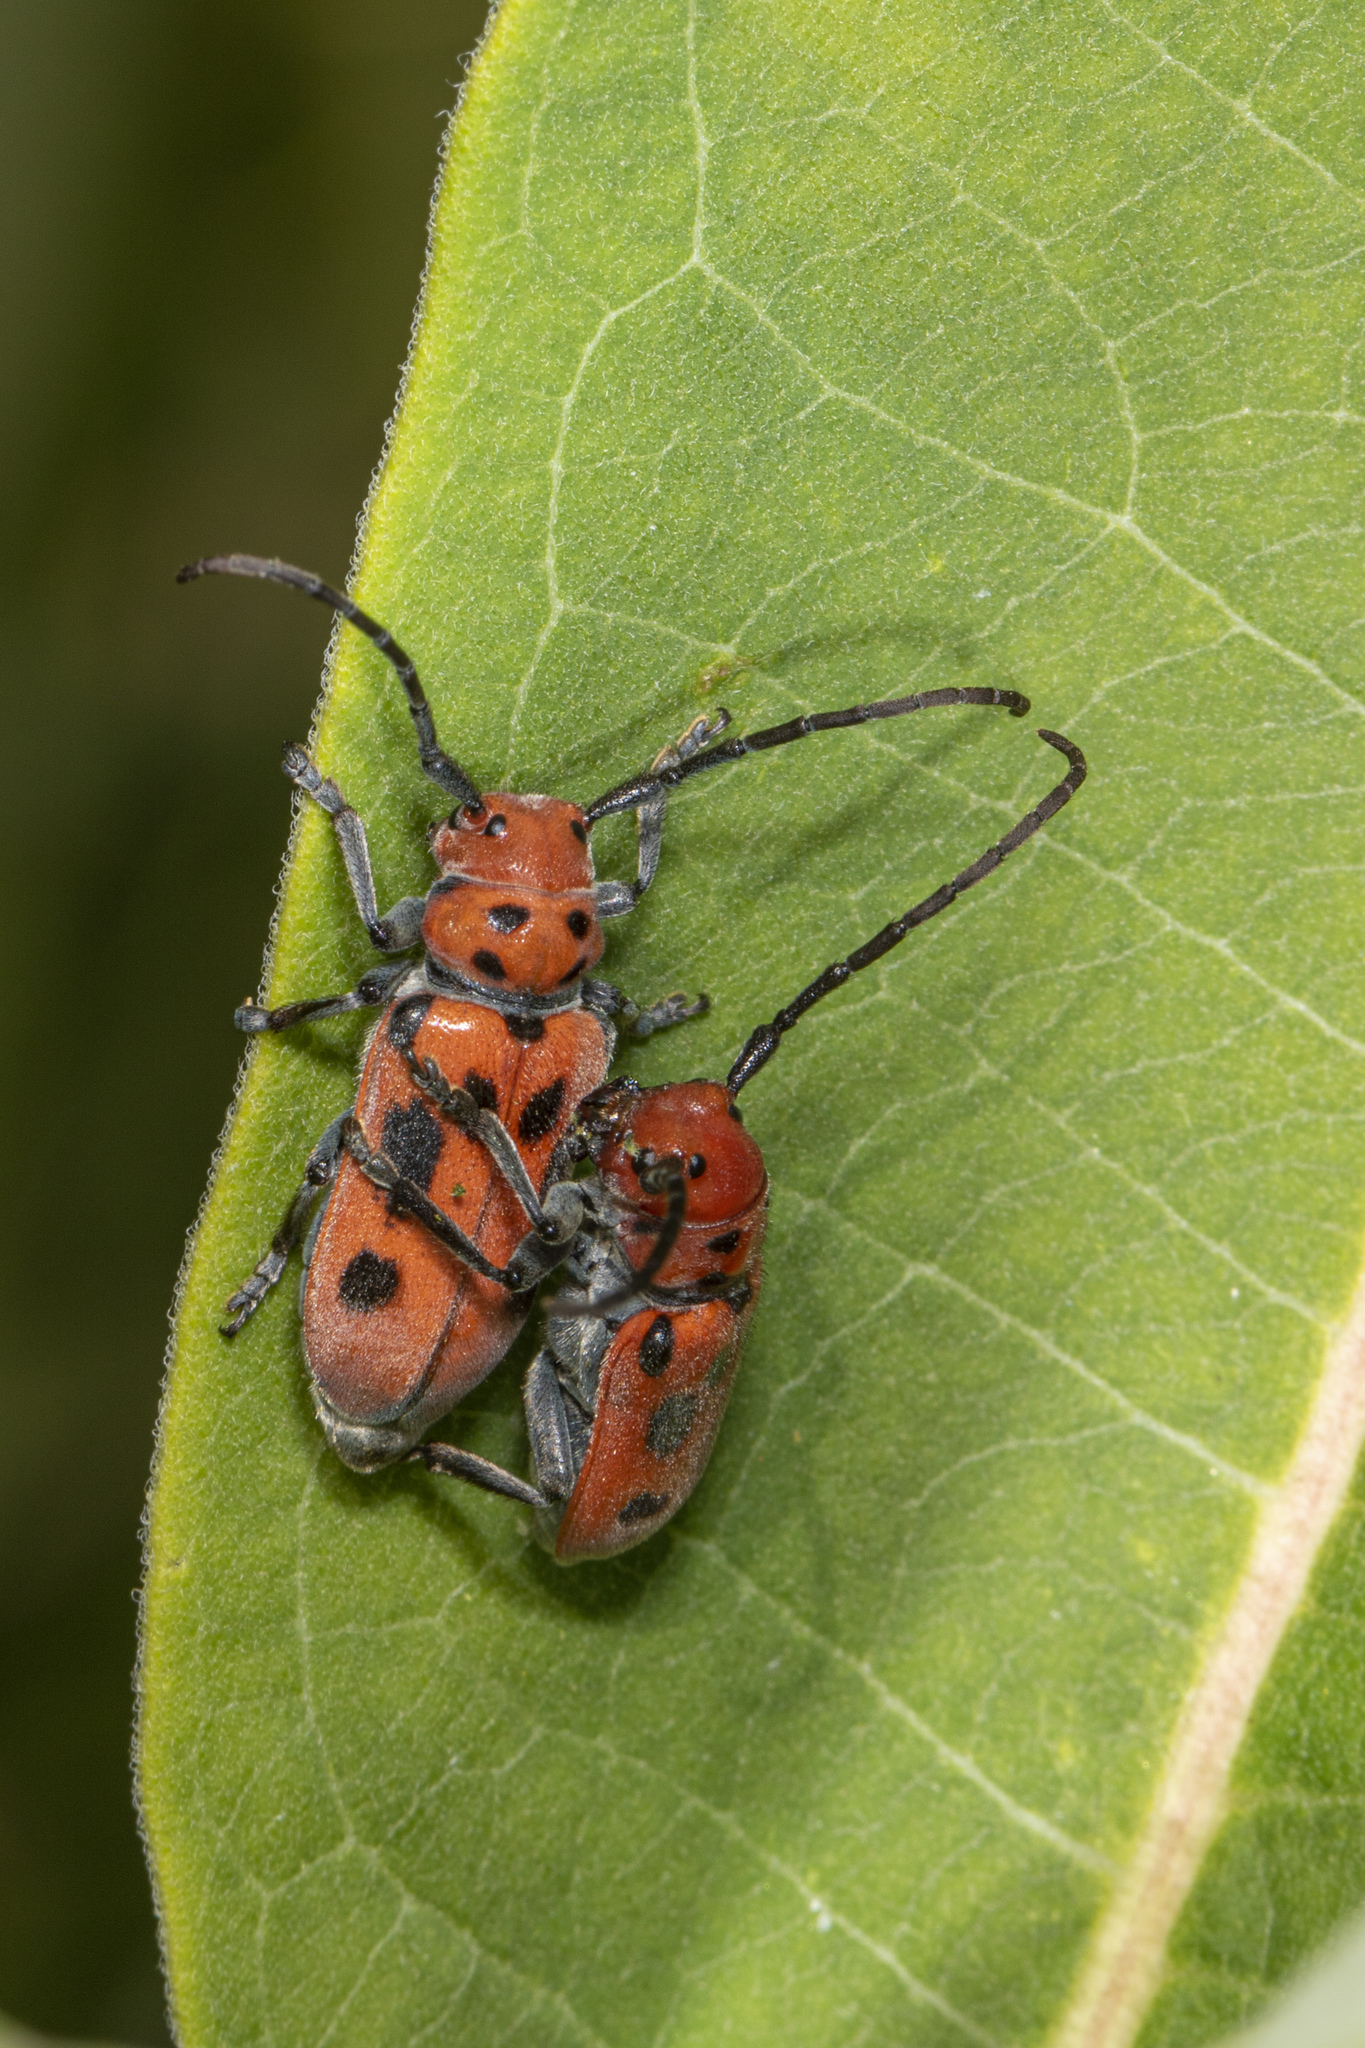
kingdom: Animalia
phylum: Arthropoda
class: Insecta
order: Coleoptera
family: Cerambycidae
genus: Tetraopes
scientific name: Tetraopes tetrophthalmus
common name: Red milkweed beetle
